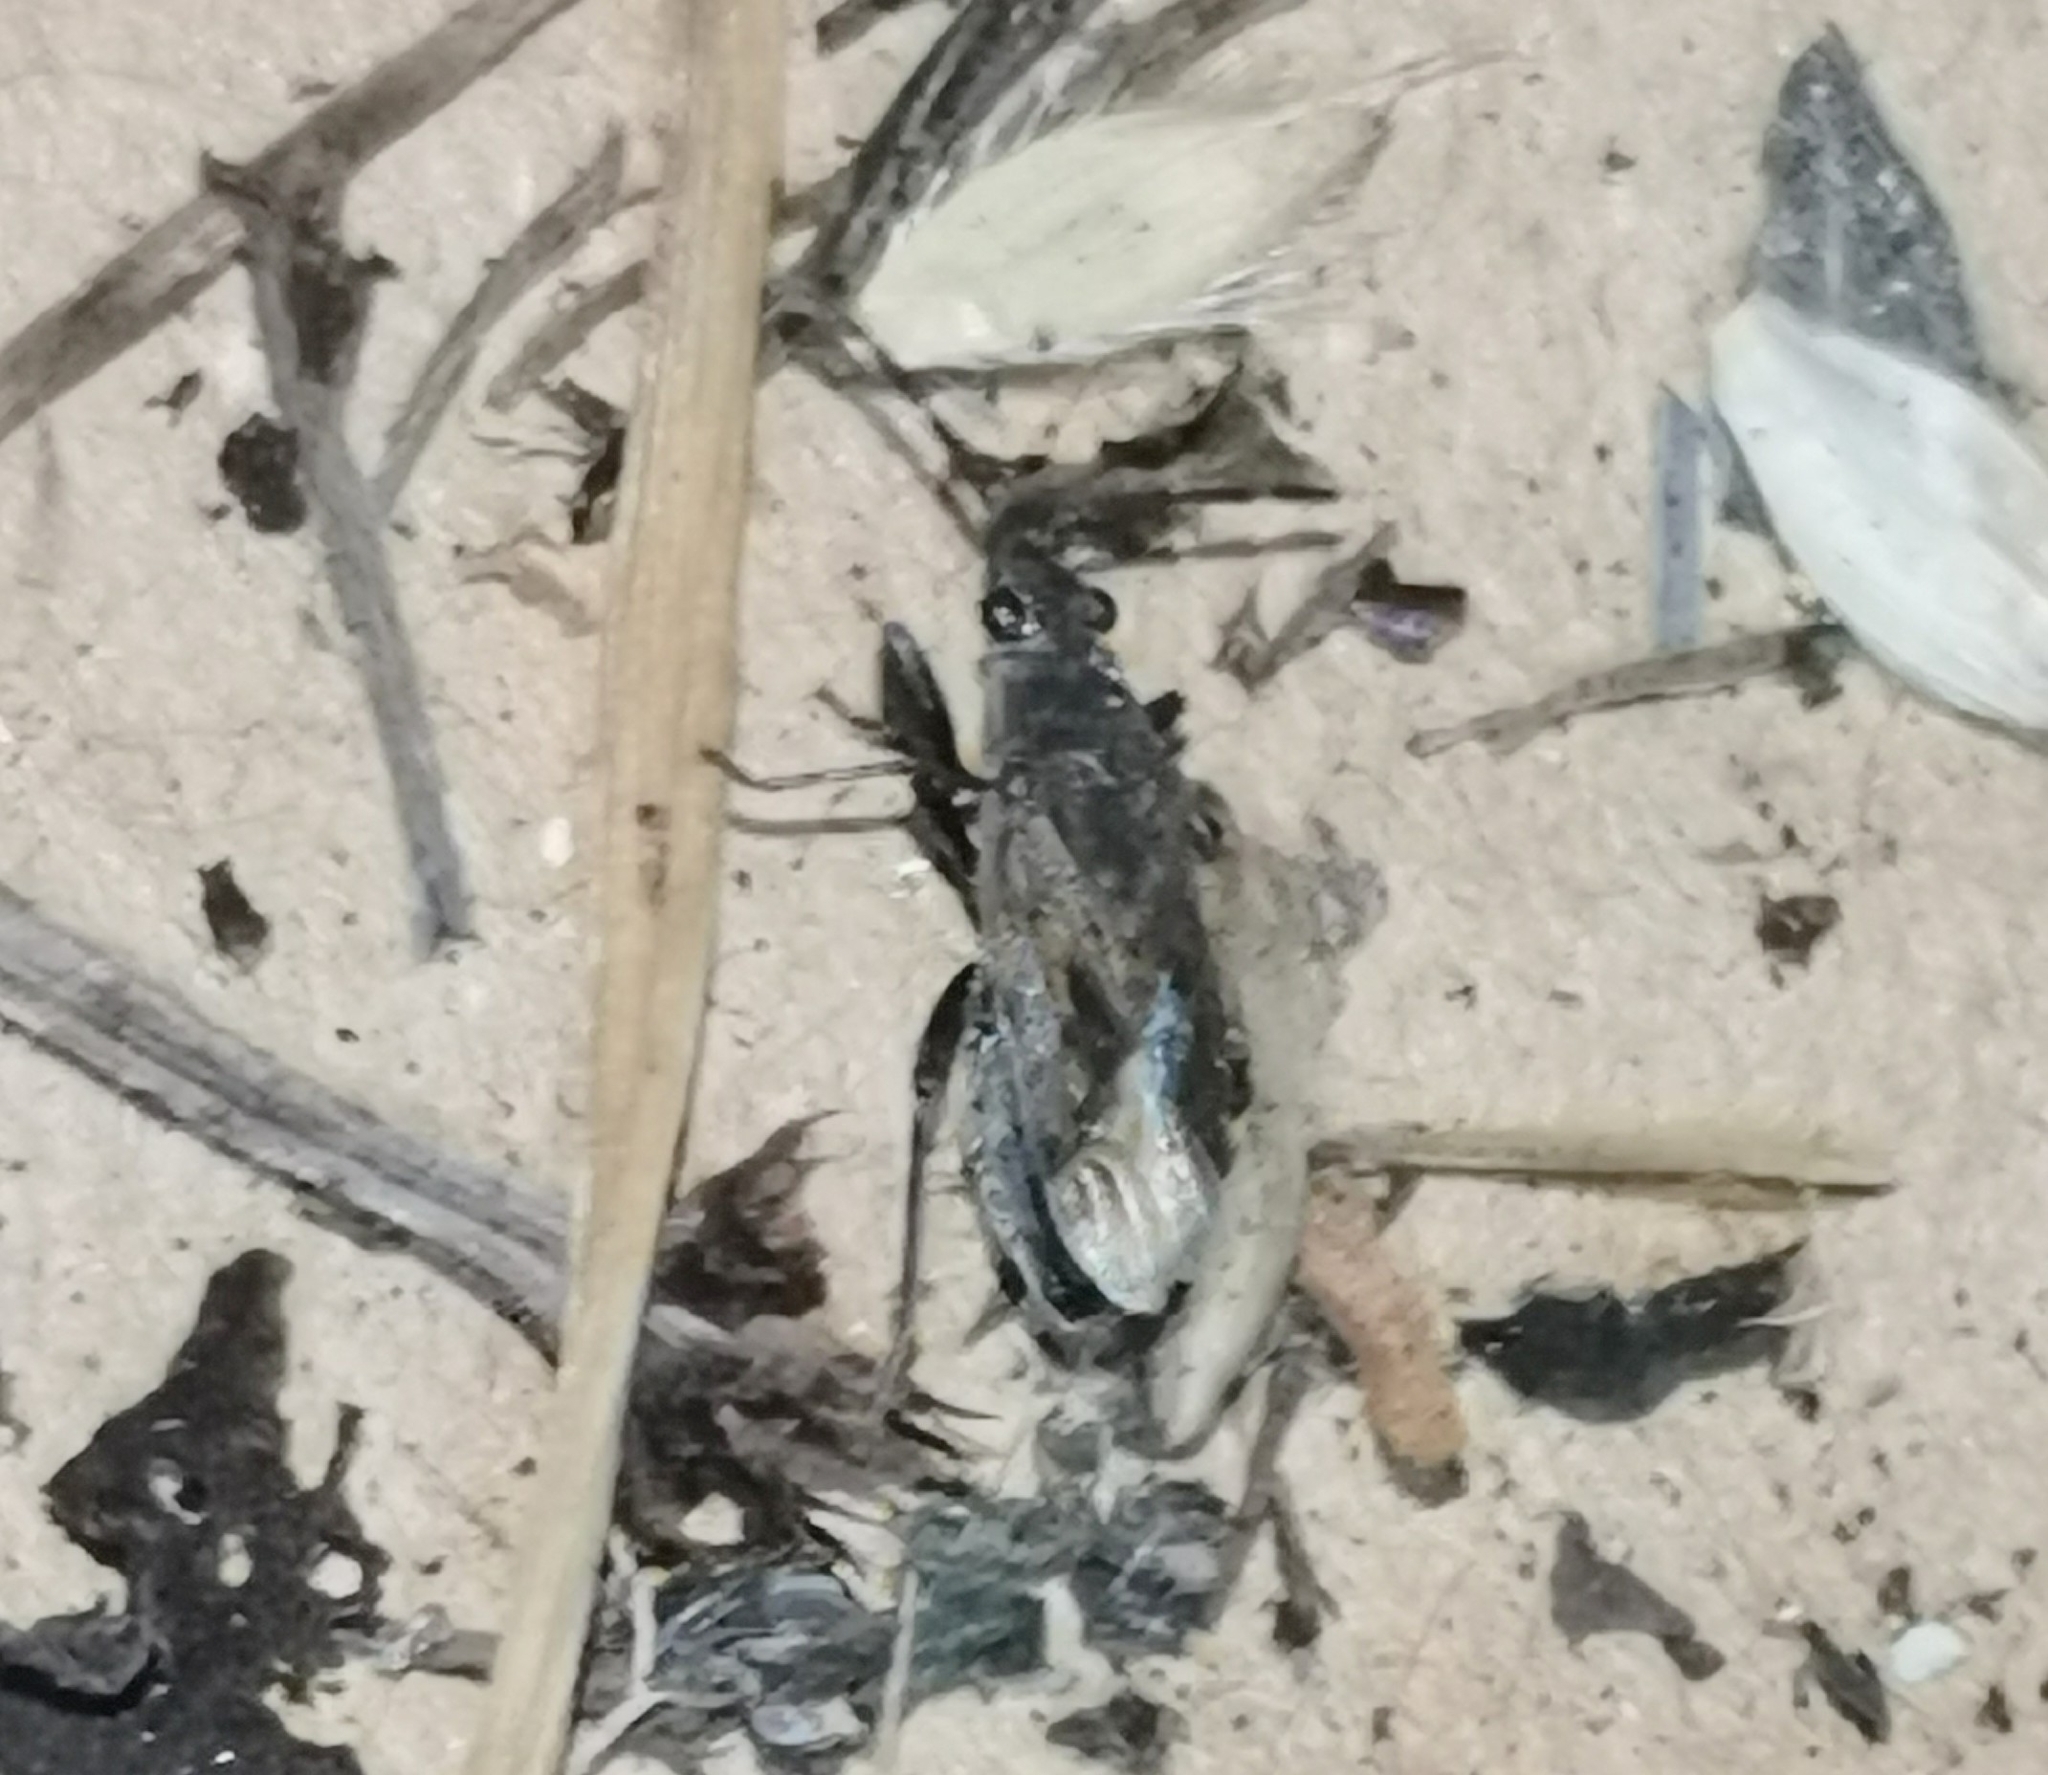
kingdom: Animalia
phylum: Arthropoda
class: Insecta
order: Hemiptera
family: Rhyparochromidae
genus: Peritrechus
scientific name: Peritrechus geniculatus
